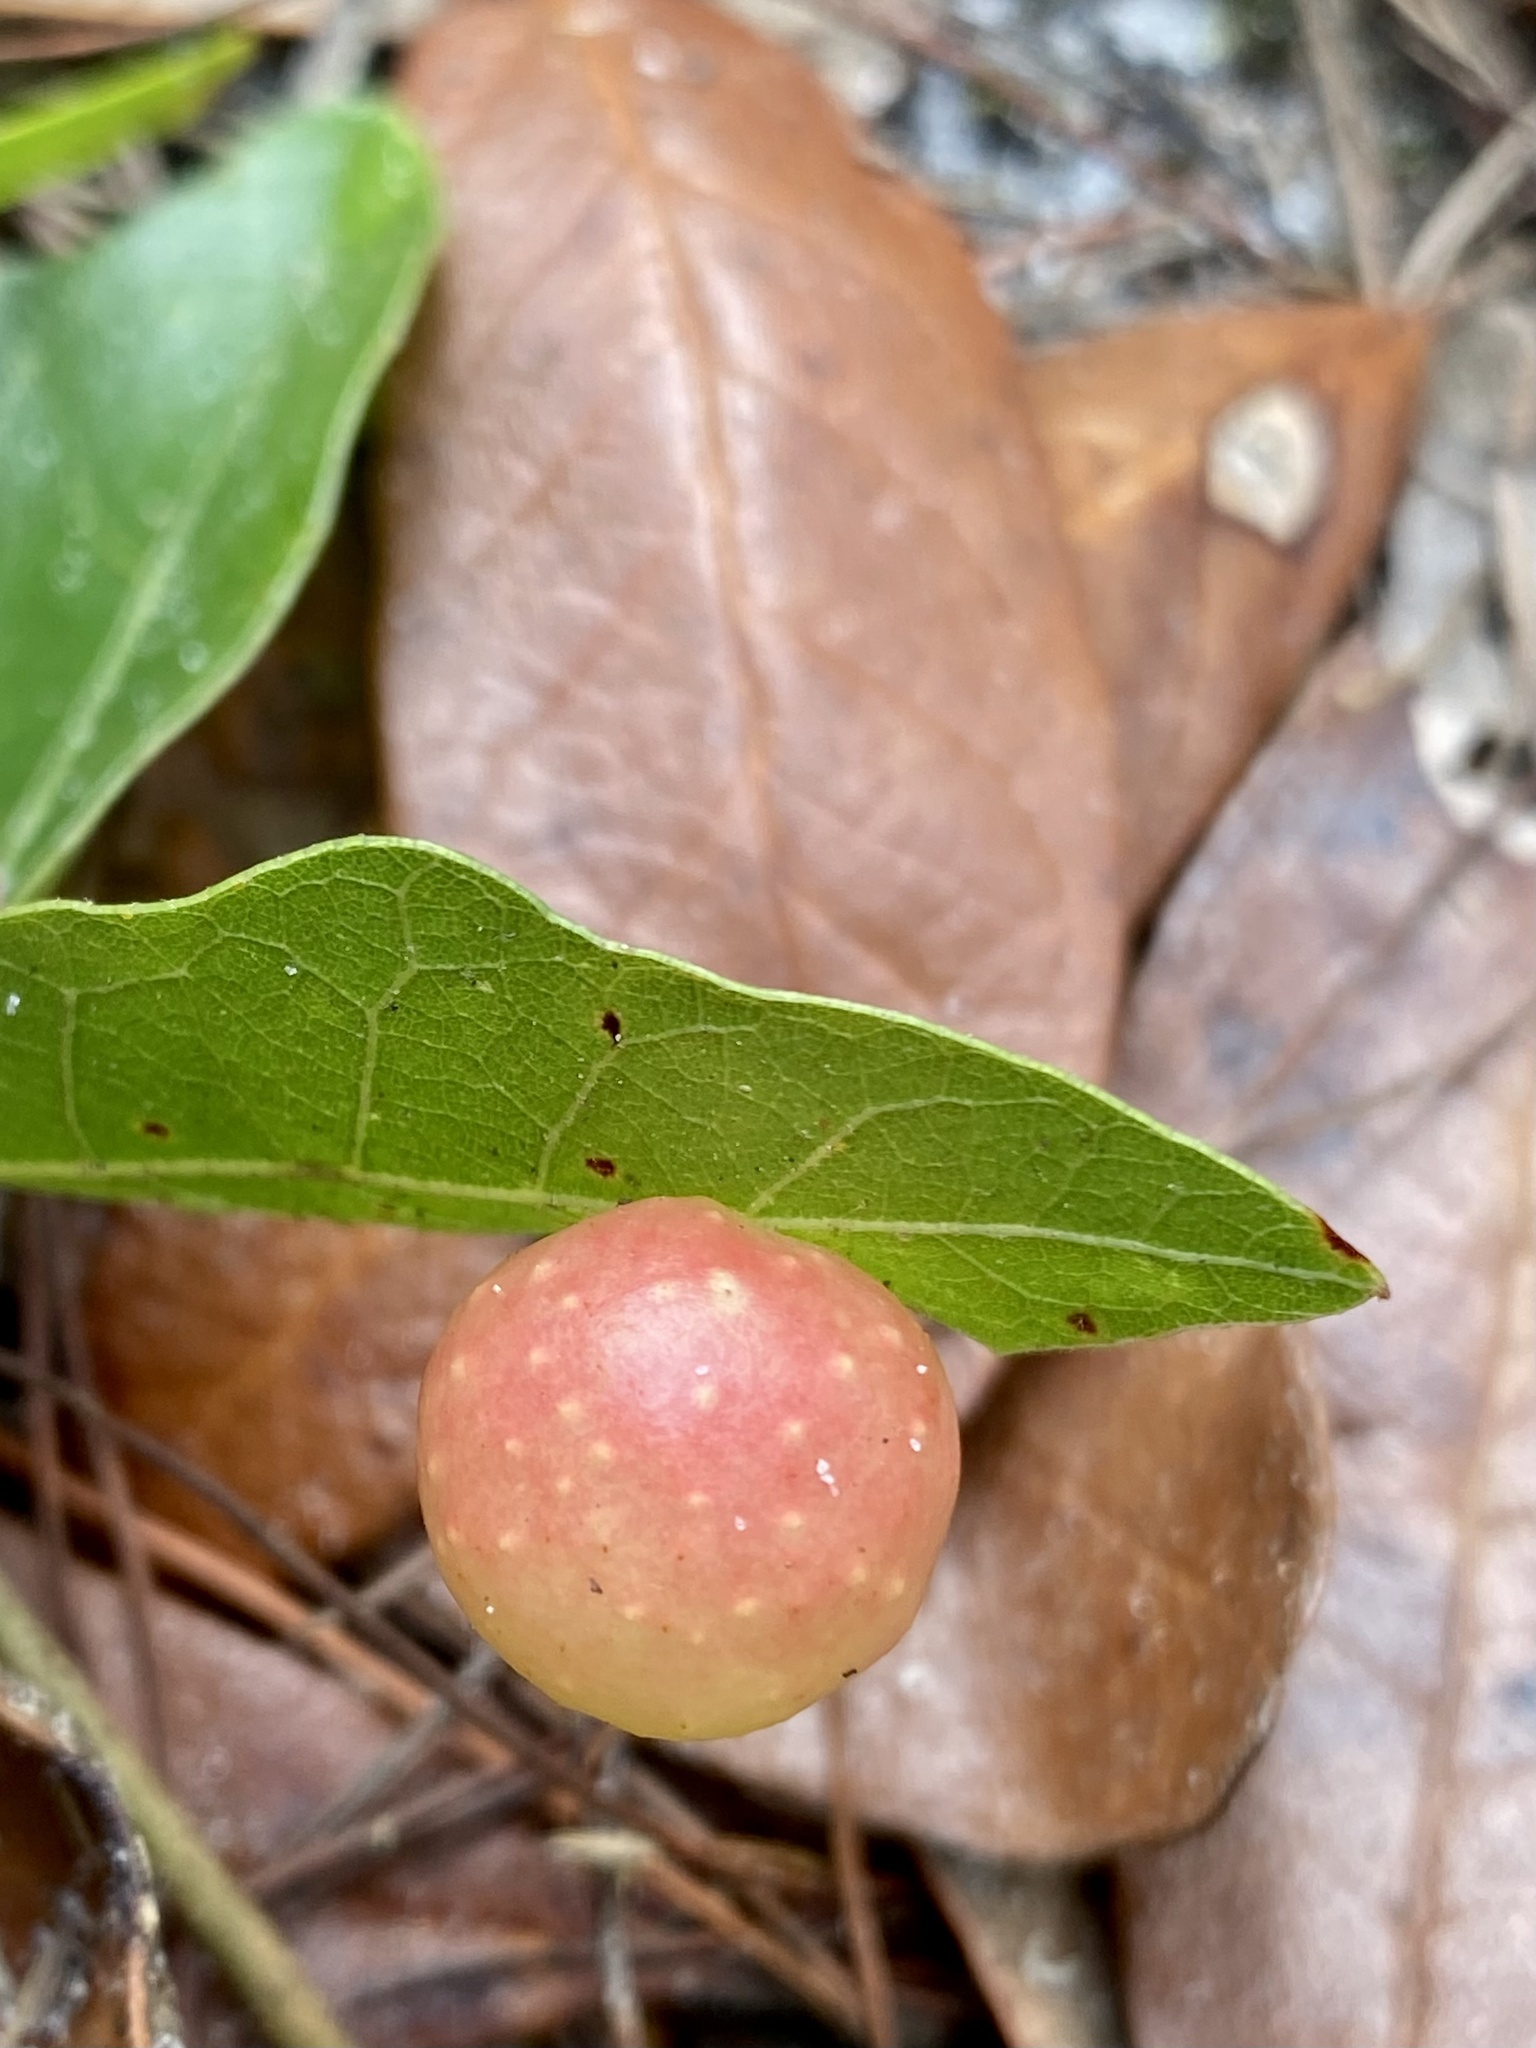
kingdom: Animalia
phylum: Arthropoda
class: Insecta
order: Hymenoptera
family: Cynipidae
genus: Trigonaspis
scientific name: Trigonaspis
